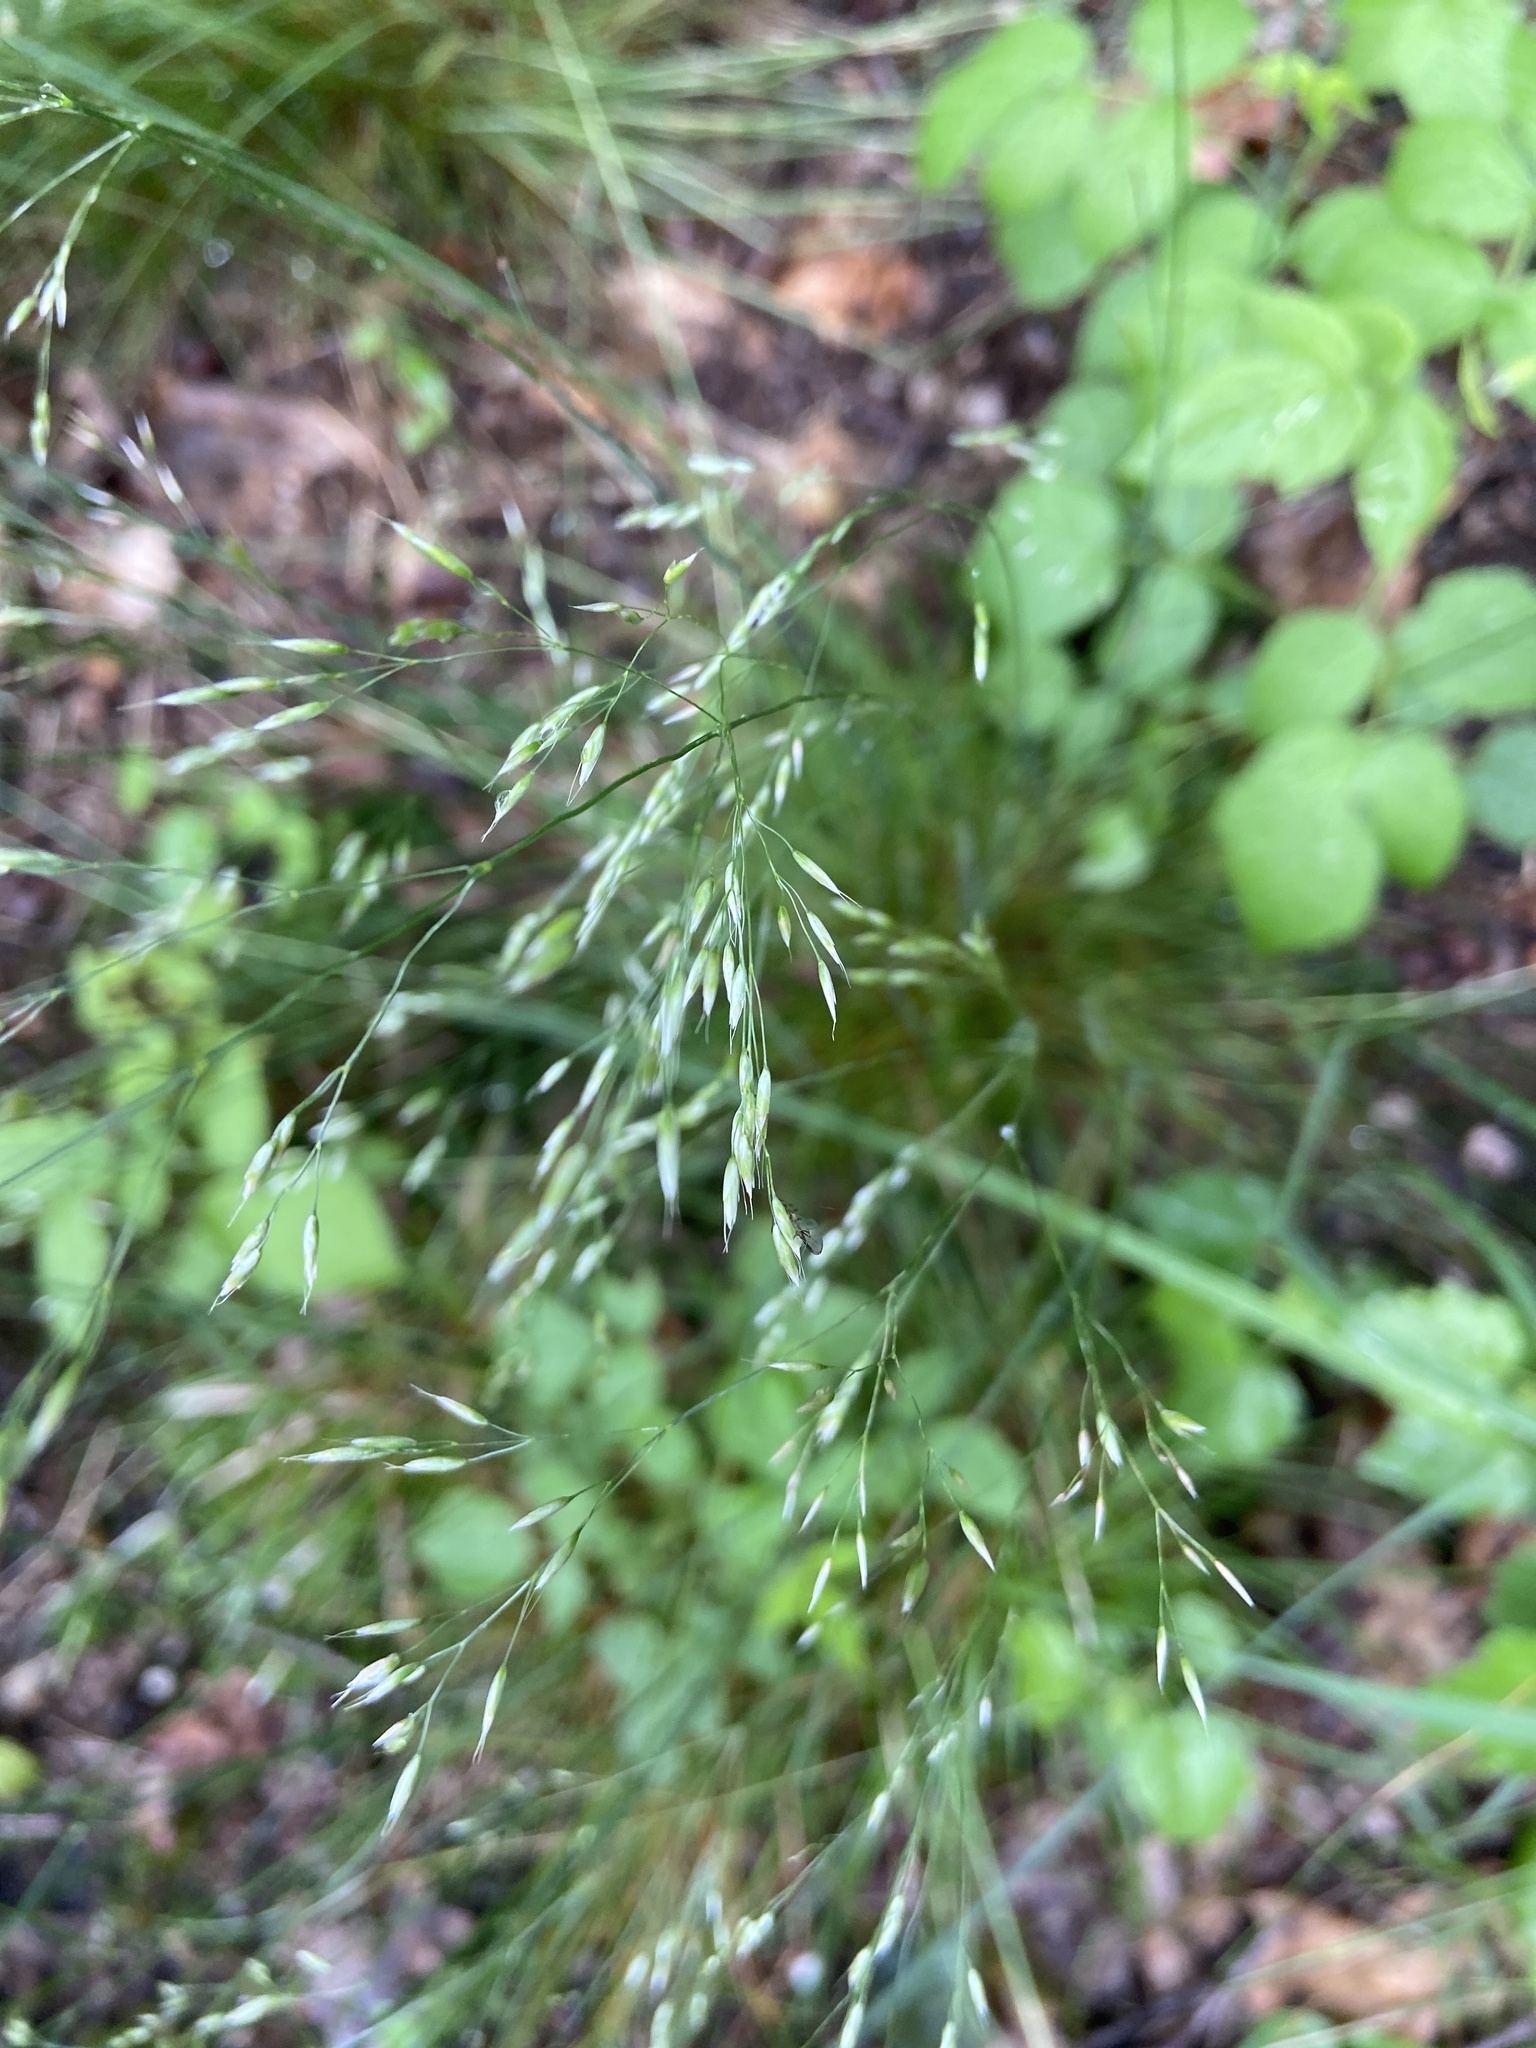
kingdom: Plantae
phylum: Tracheophyta
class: Liliopsida
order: Poales
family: Poaceae
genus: Avenella
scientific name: Avenella flexuosa
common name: Wavy hairgrass
